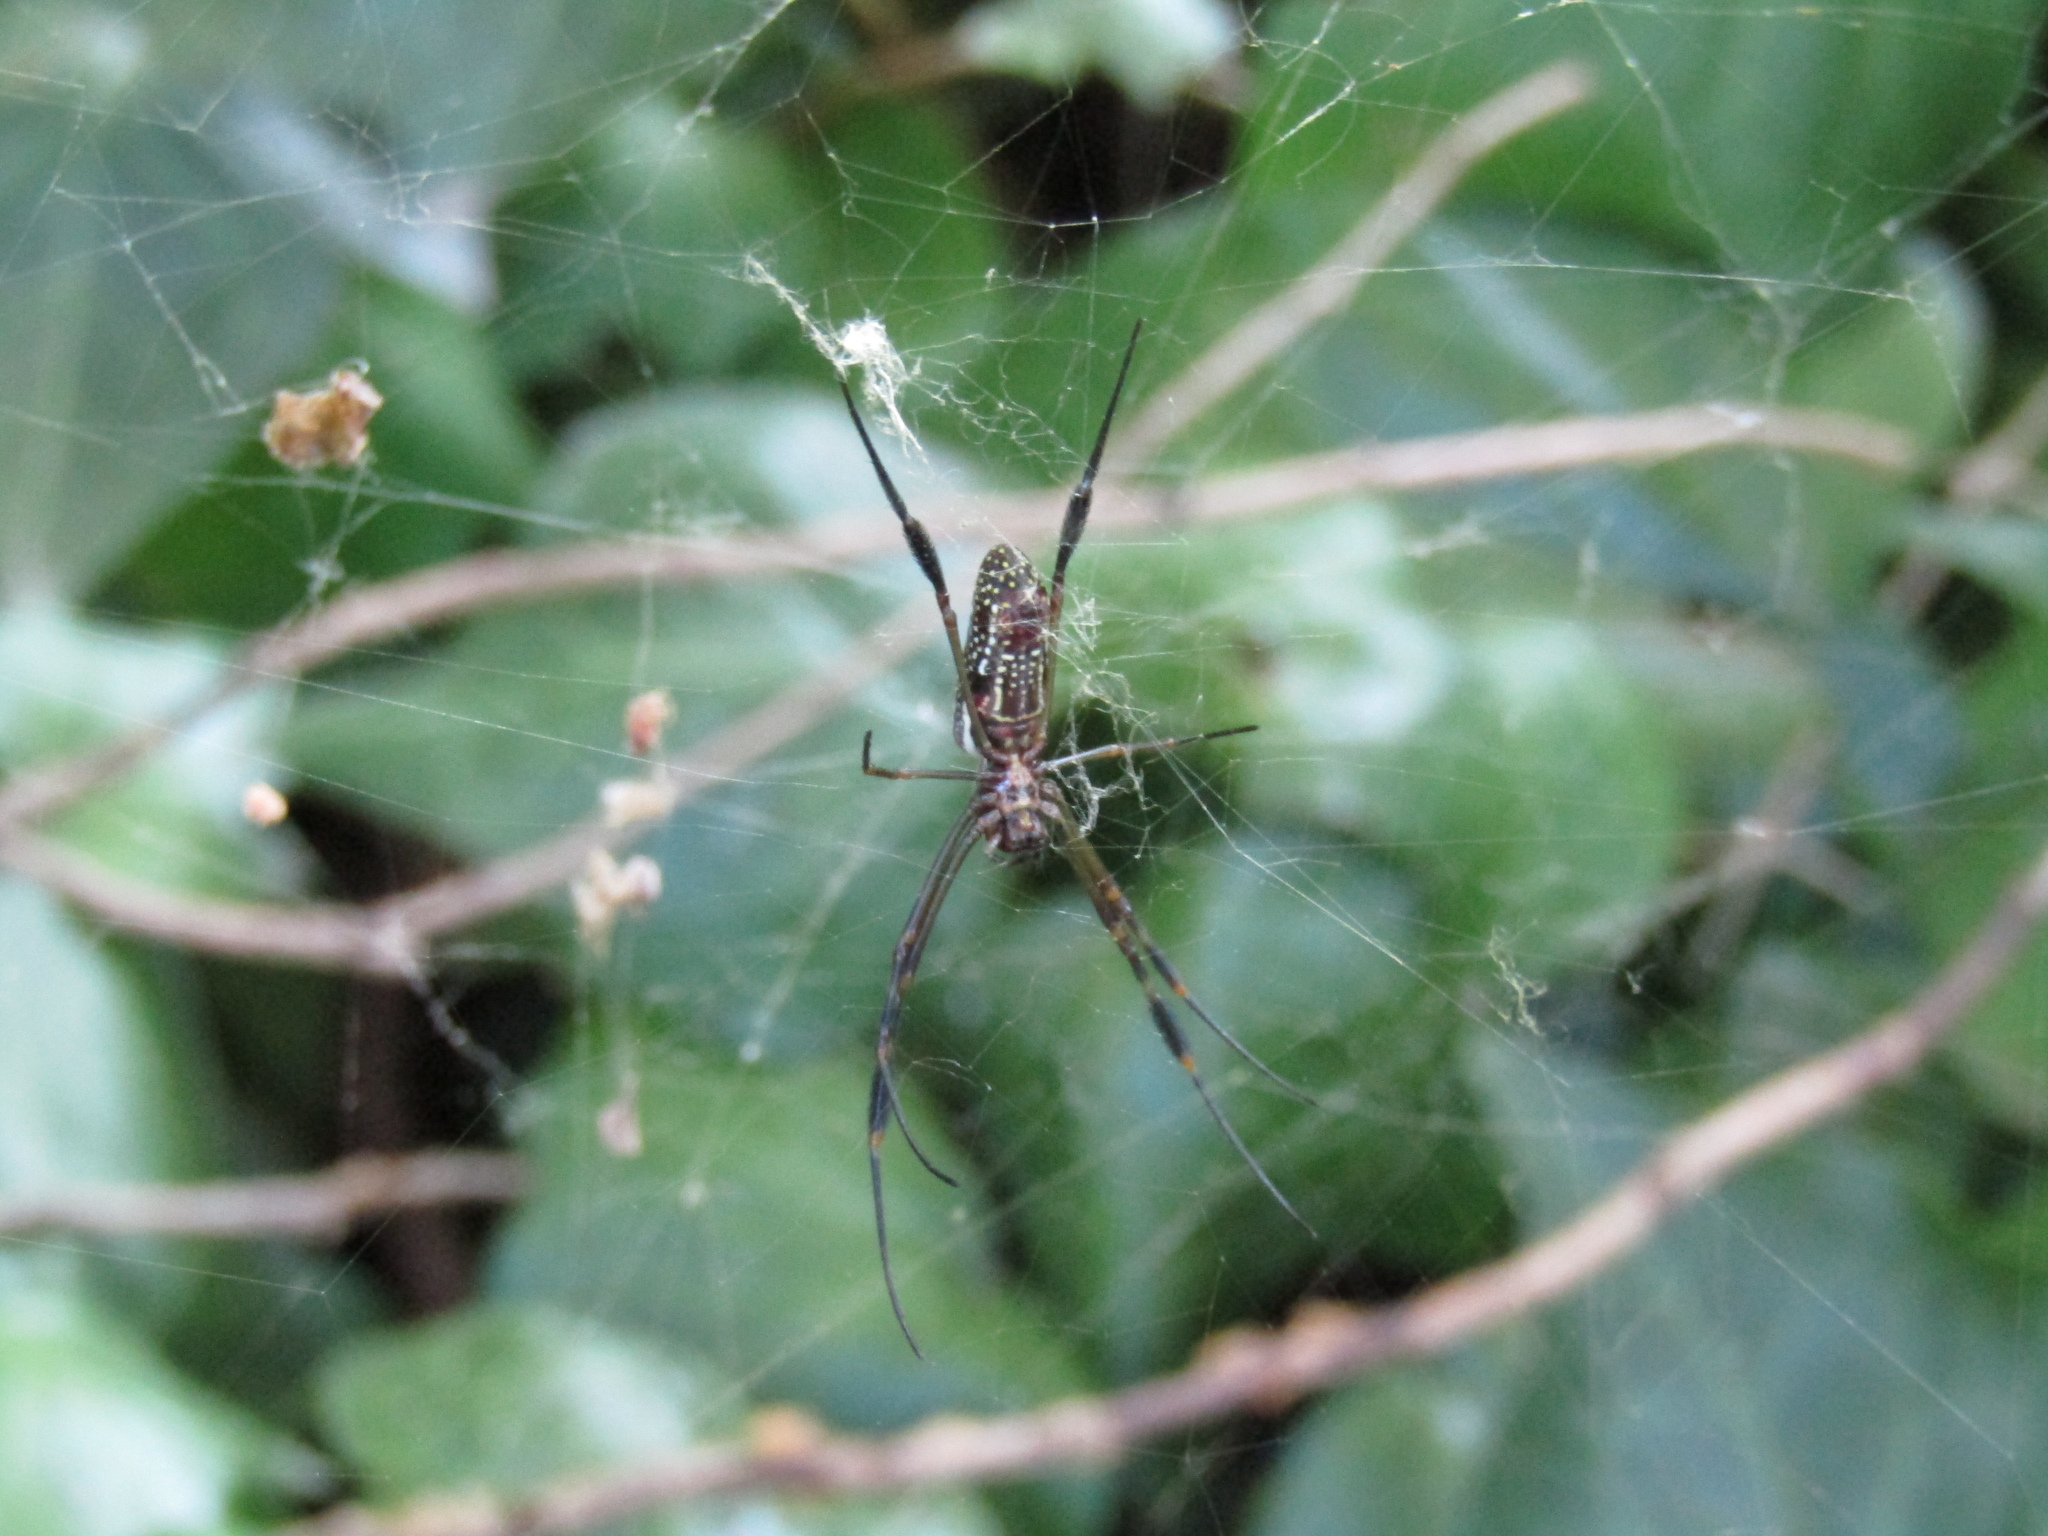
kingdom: Animalia
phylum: Arthropoda
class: Arachnida
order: Araneae
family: Araneidae
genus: Trichonephila
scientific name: Trichonephila clavipes
